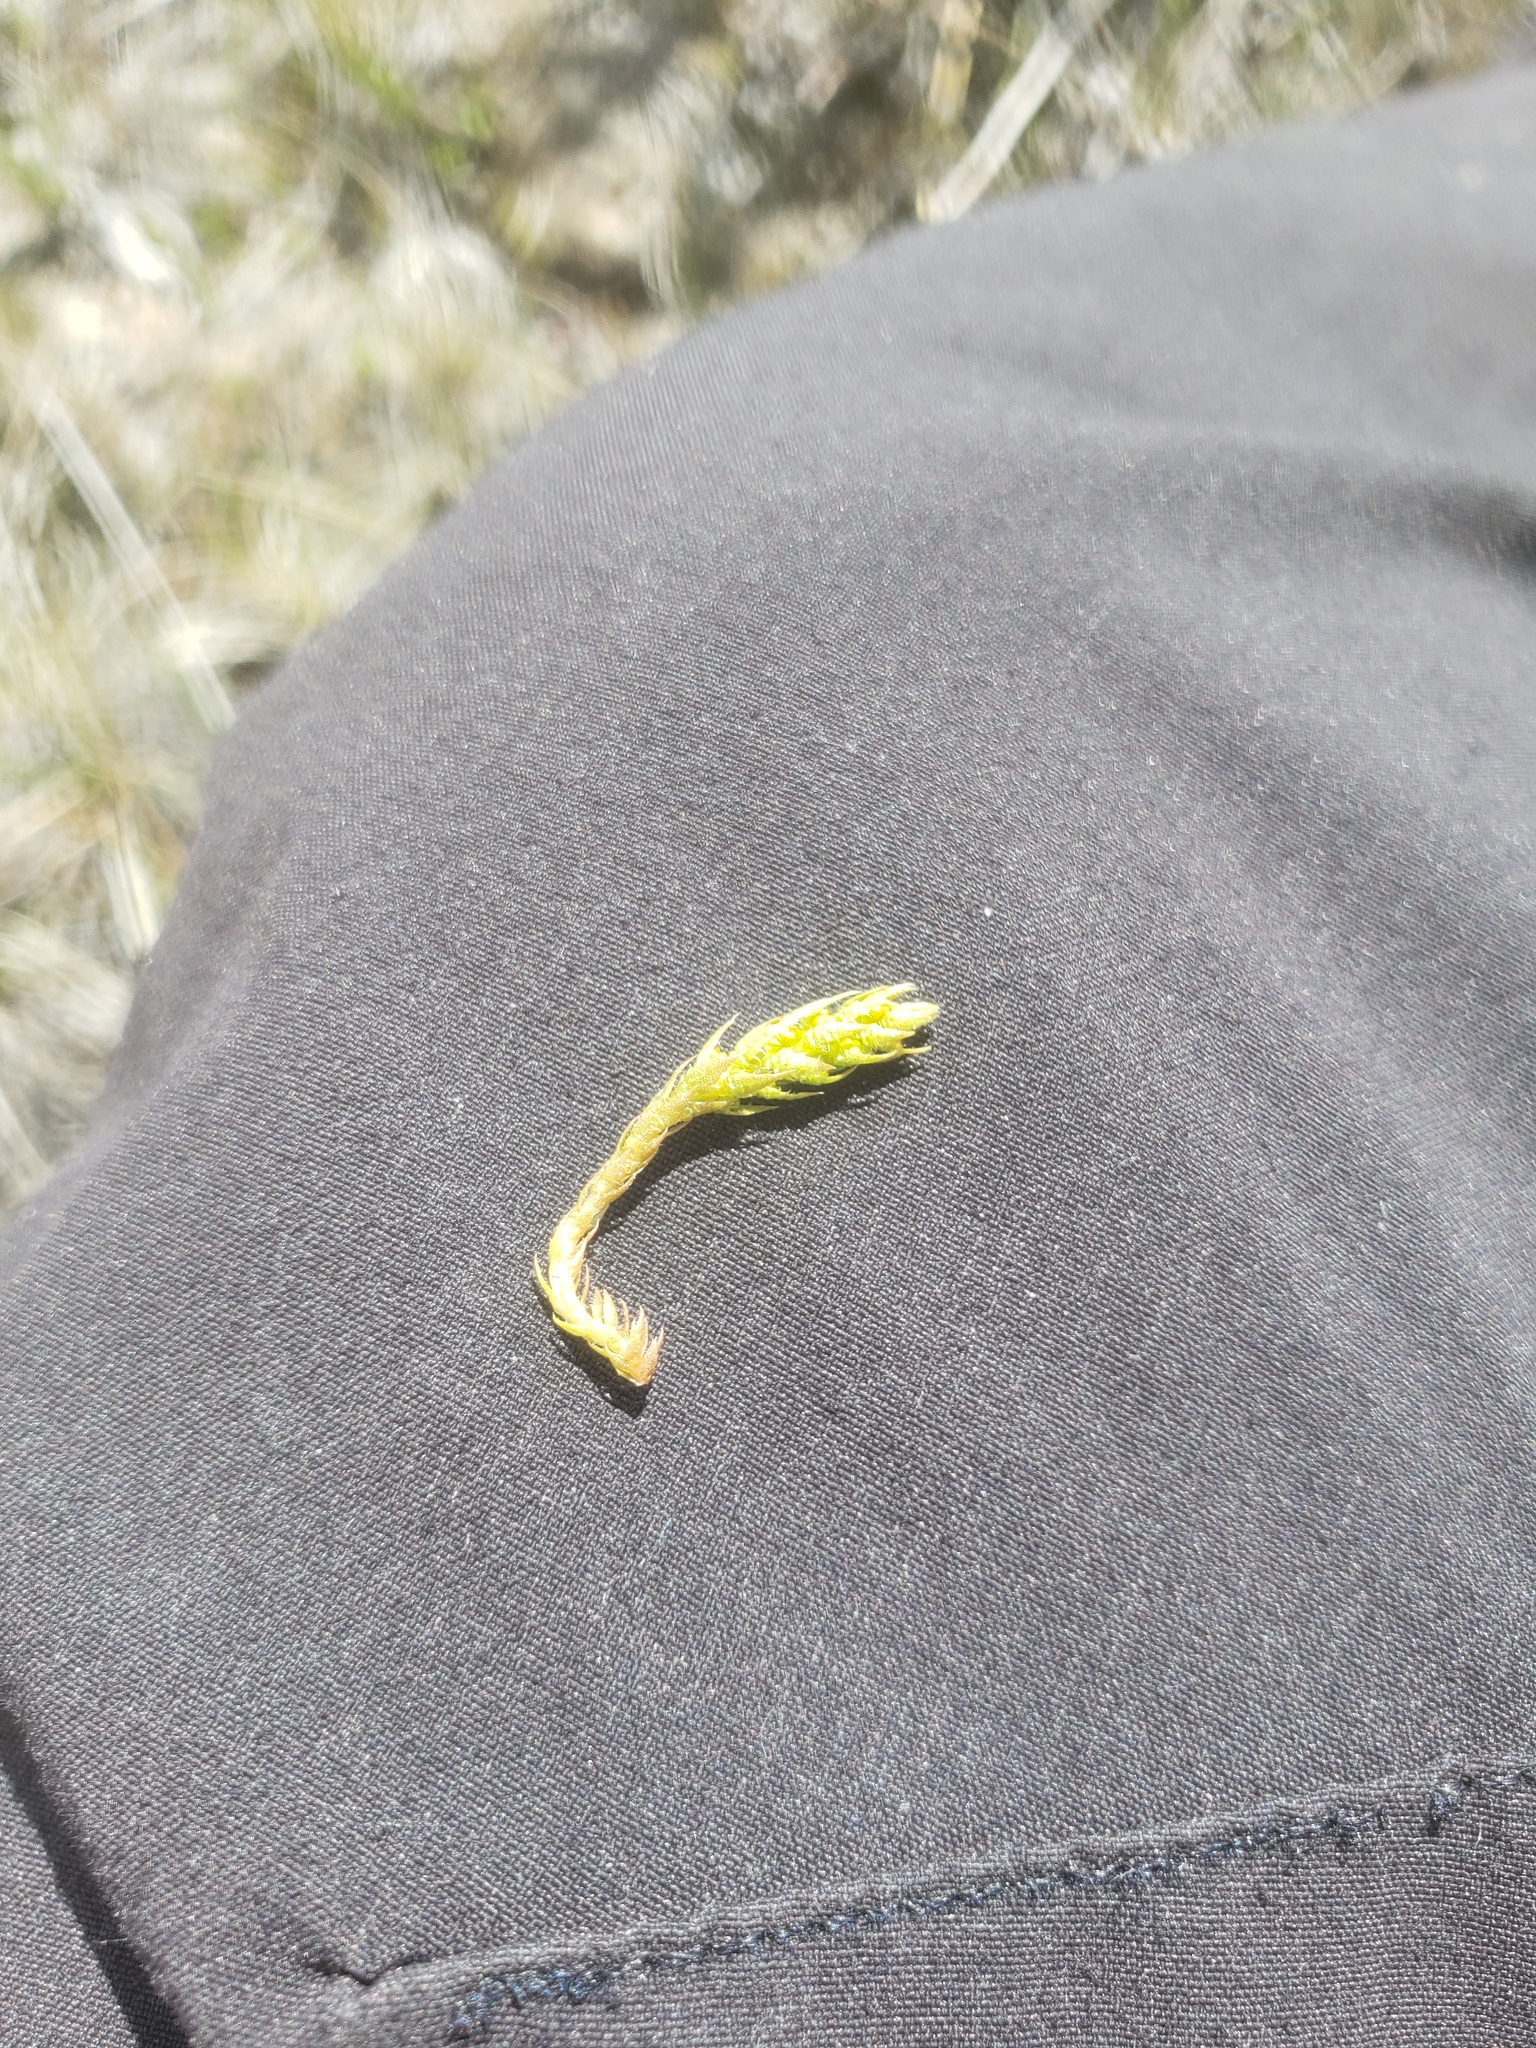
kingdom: Plantae
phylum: Tracheophyta
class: Lycopodiopsida
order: Selaginellales
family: Selaginellaceae
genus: Selaginella
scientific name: Selaginella selaginoides
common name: Prickly mountain-moss
